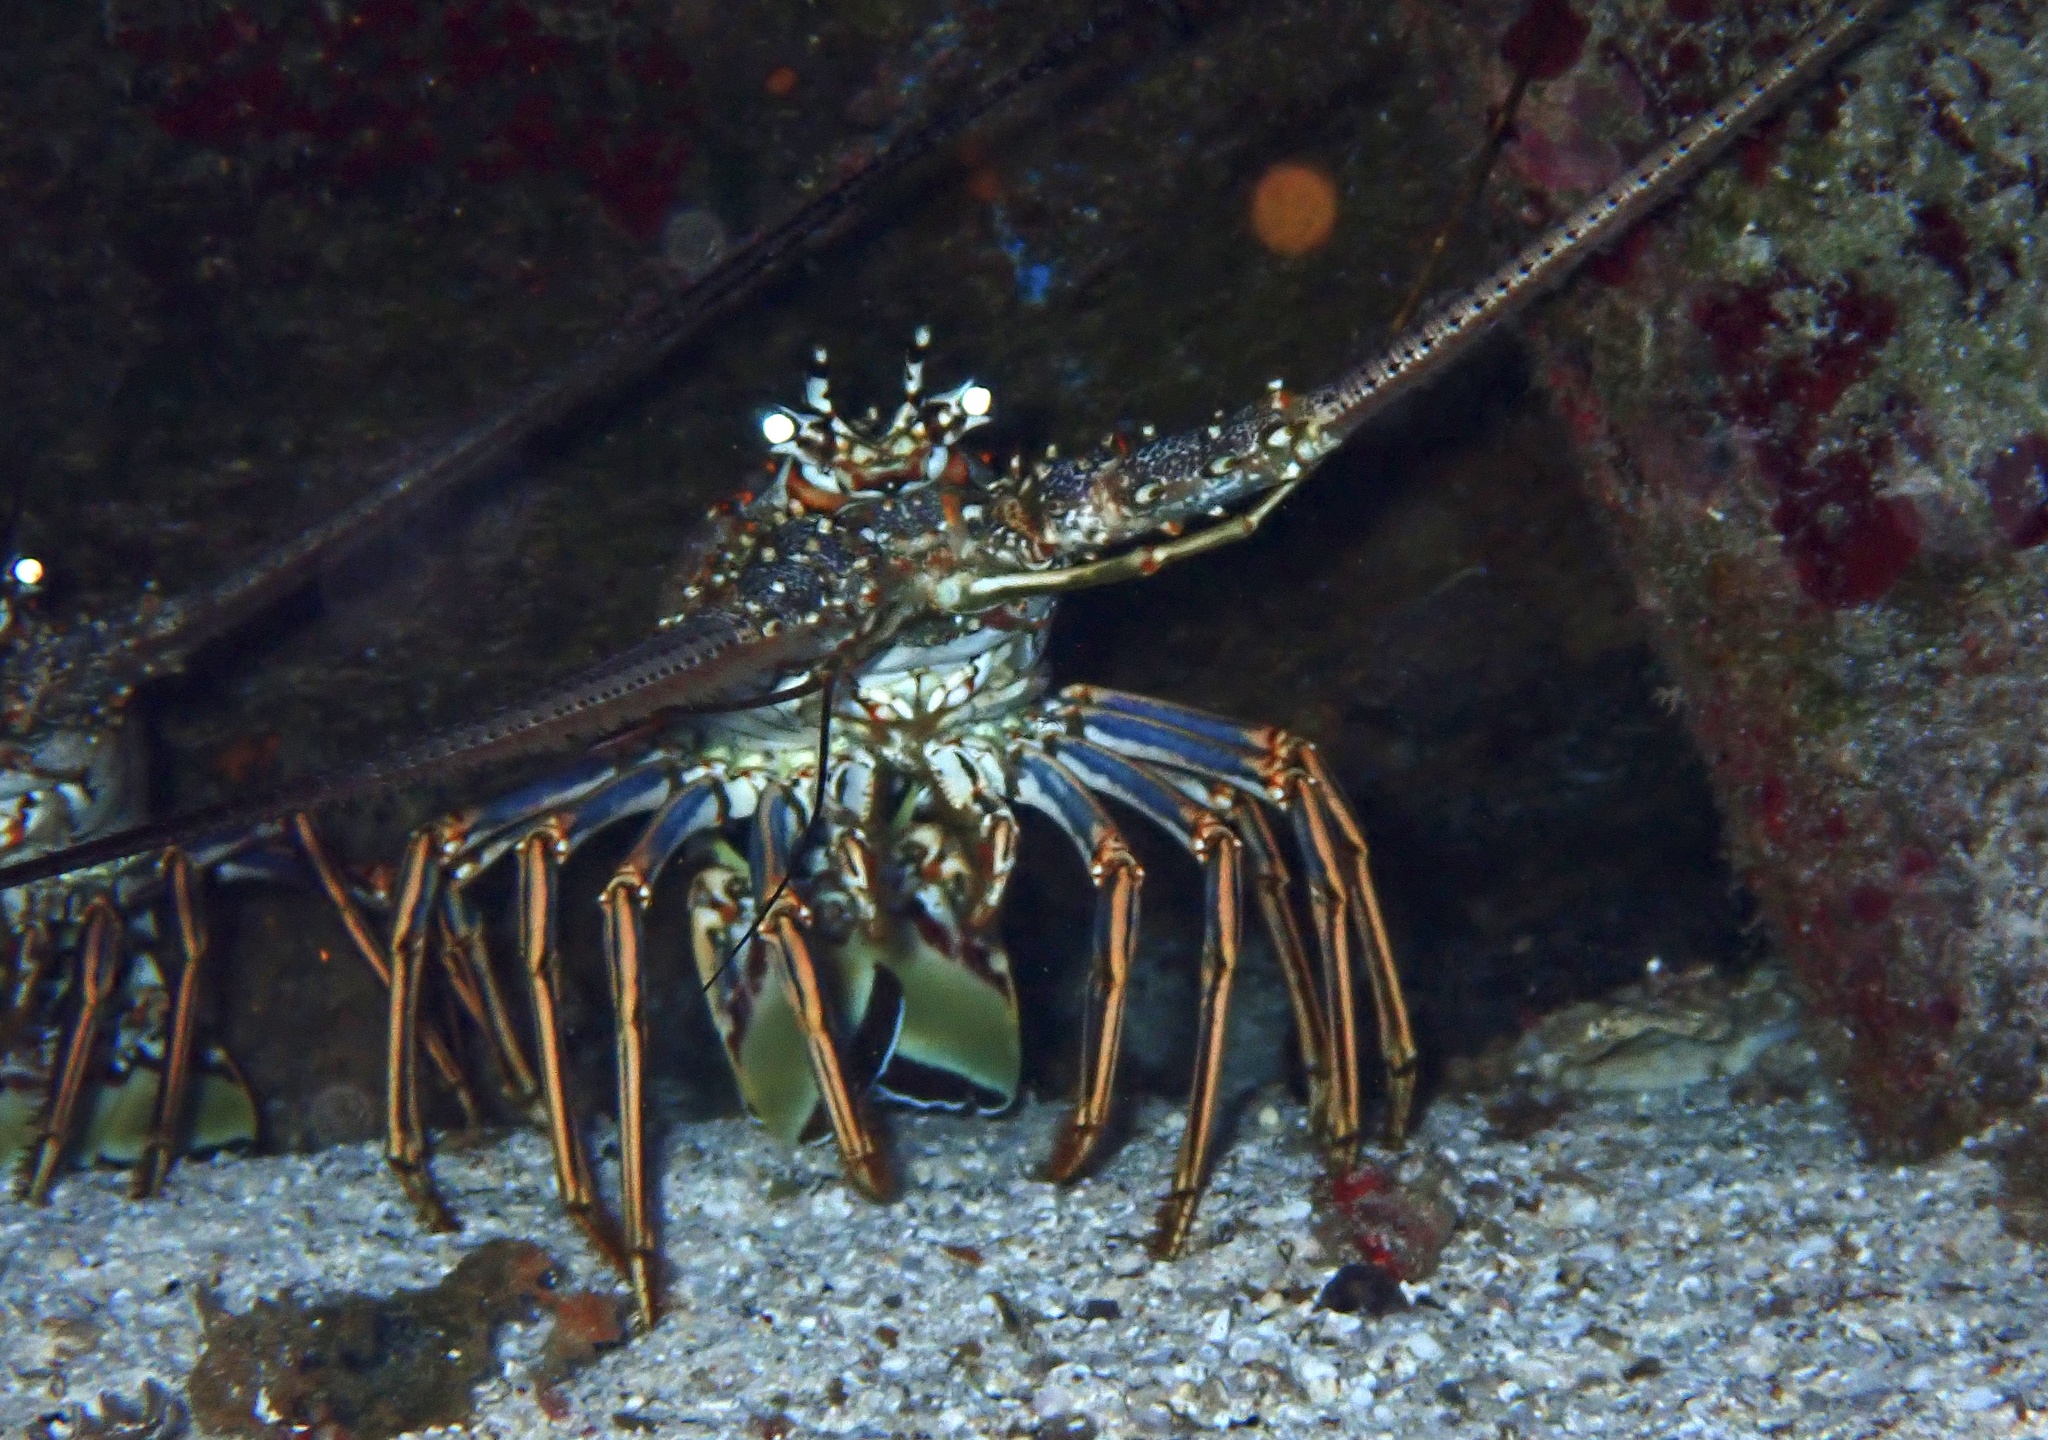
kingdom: Animalia
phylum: Arthropoda
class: Malacostraca
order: Decapoda
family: Palinuridae
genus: Panulirus
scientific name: Panulirus argus
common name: Caribbean spiny lobster
